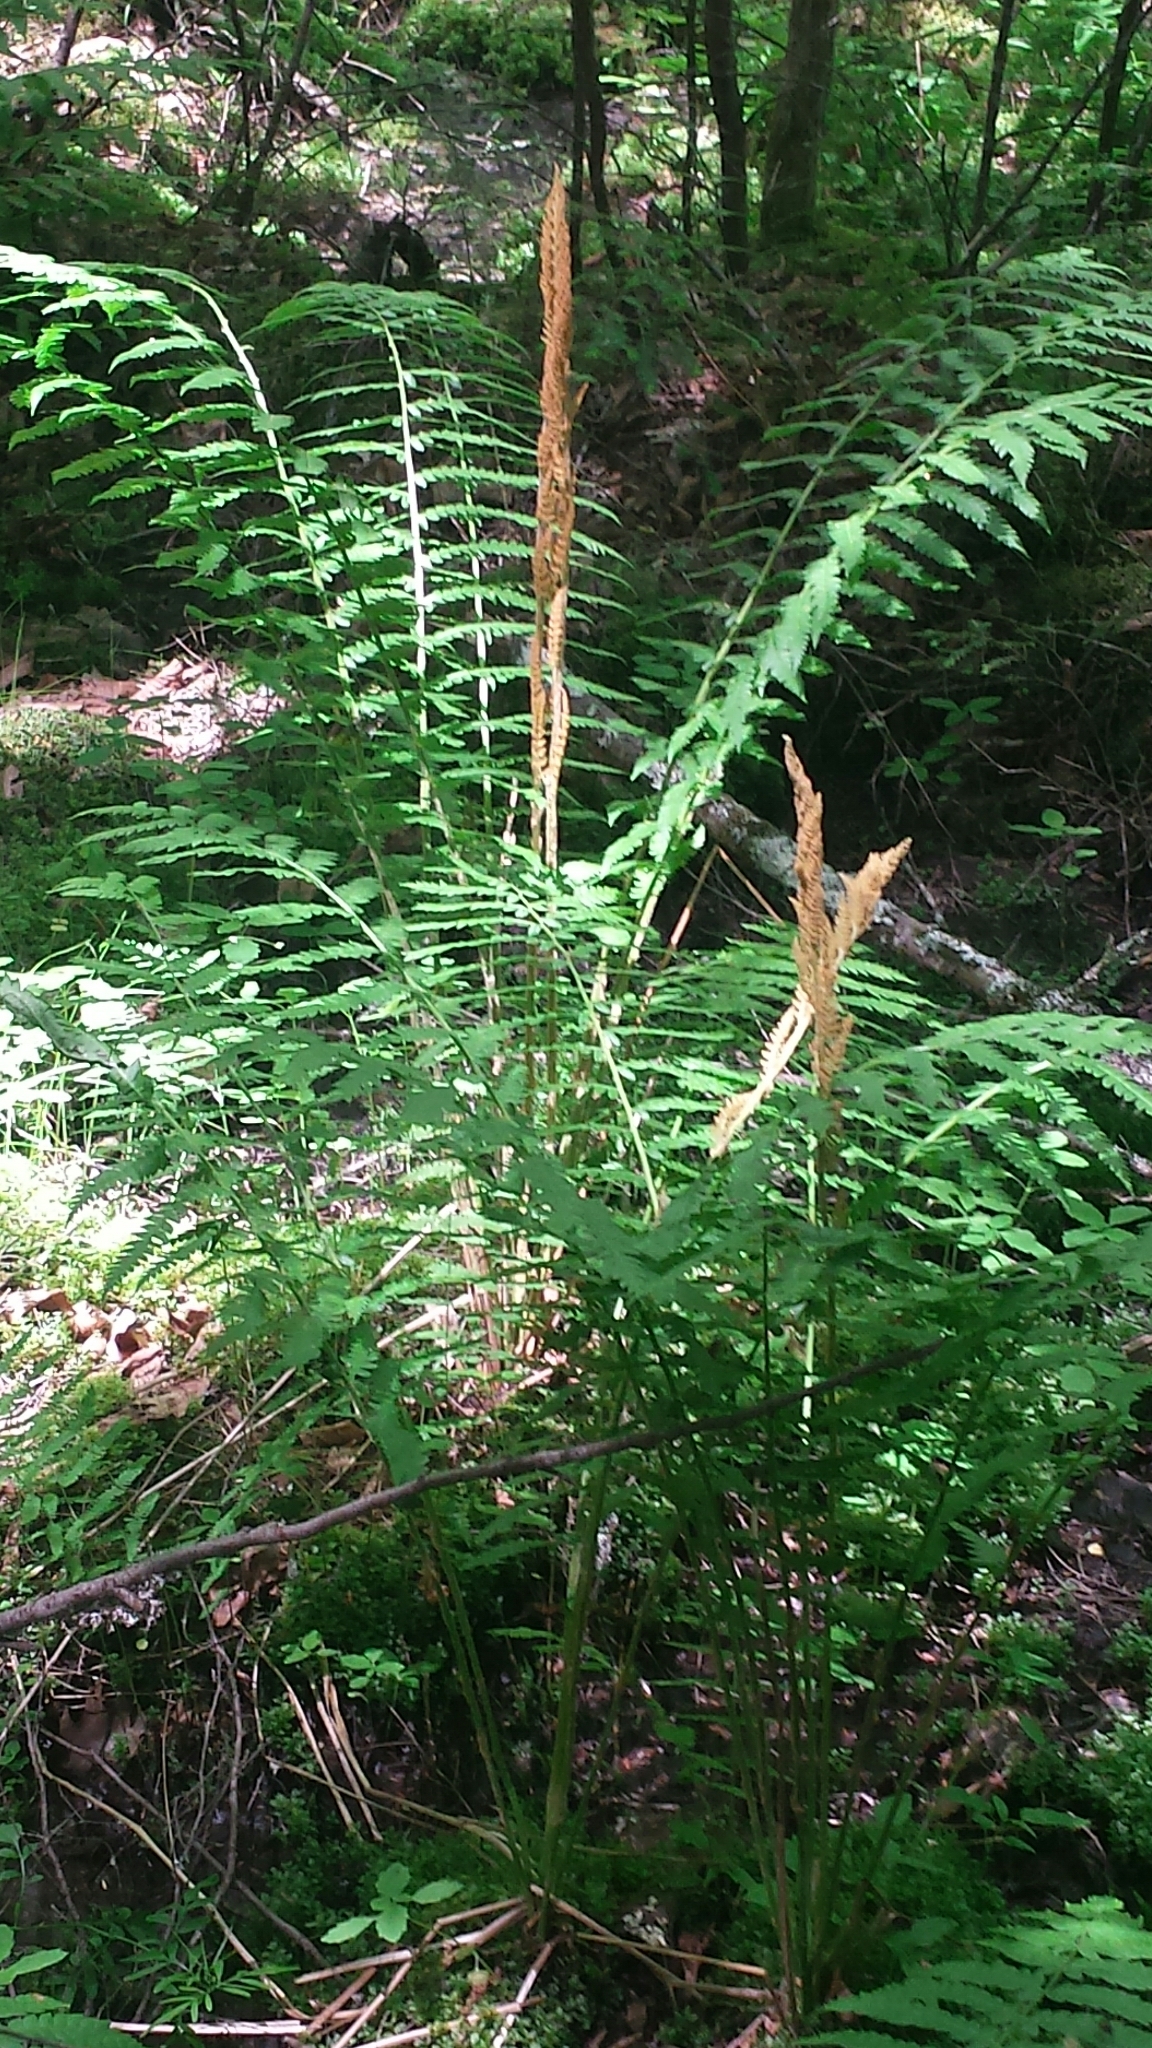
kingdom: Plantae
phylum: Tracheophyta
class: Polypodiopsida
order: Osmundales
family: Osmundaceae
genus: Osmundastrum
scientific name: Osmundastrum cinnamomeum
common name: Cinnamon fern
